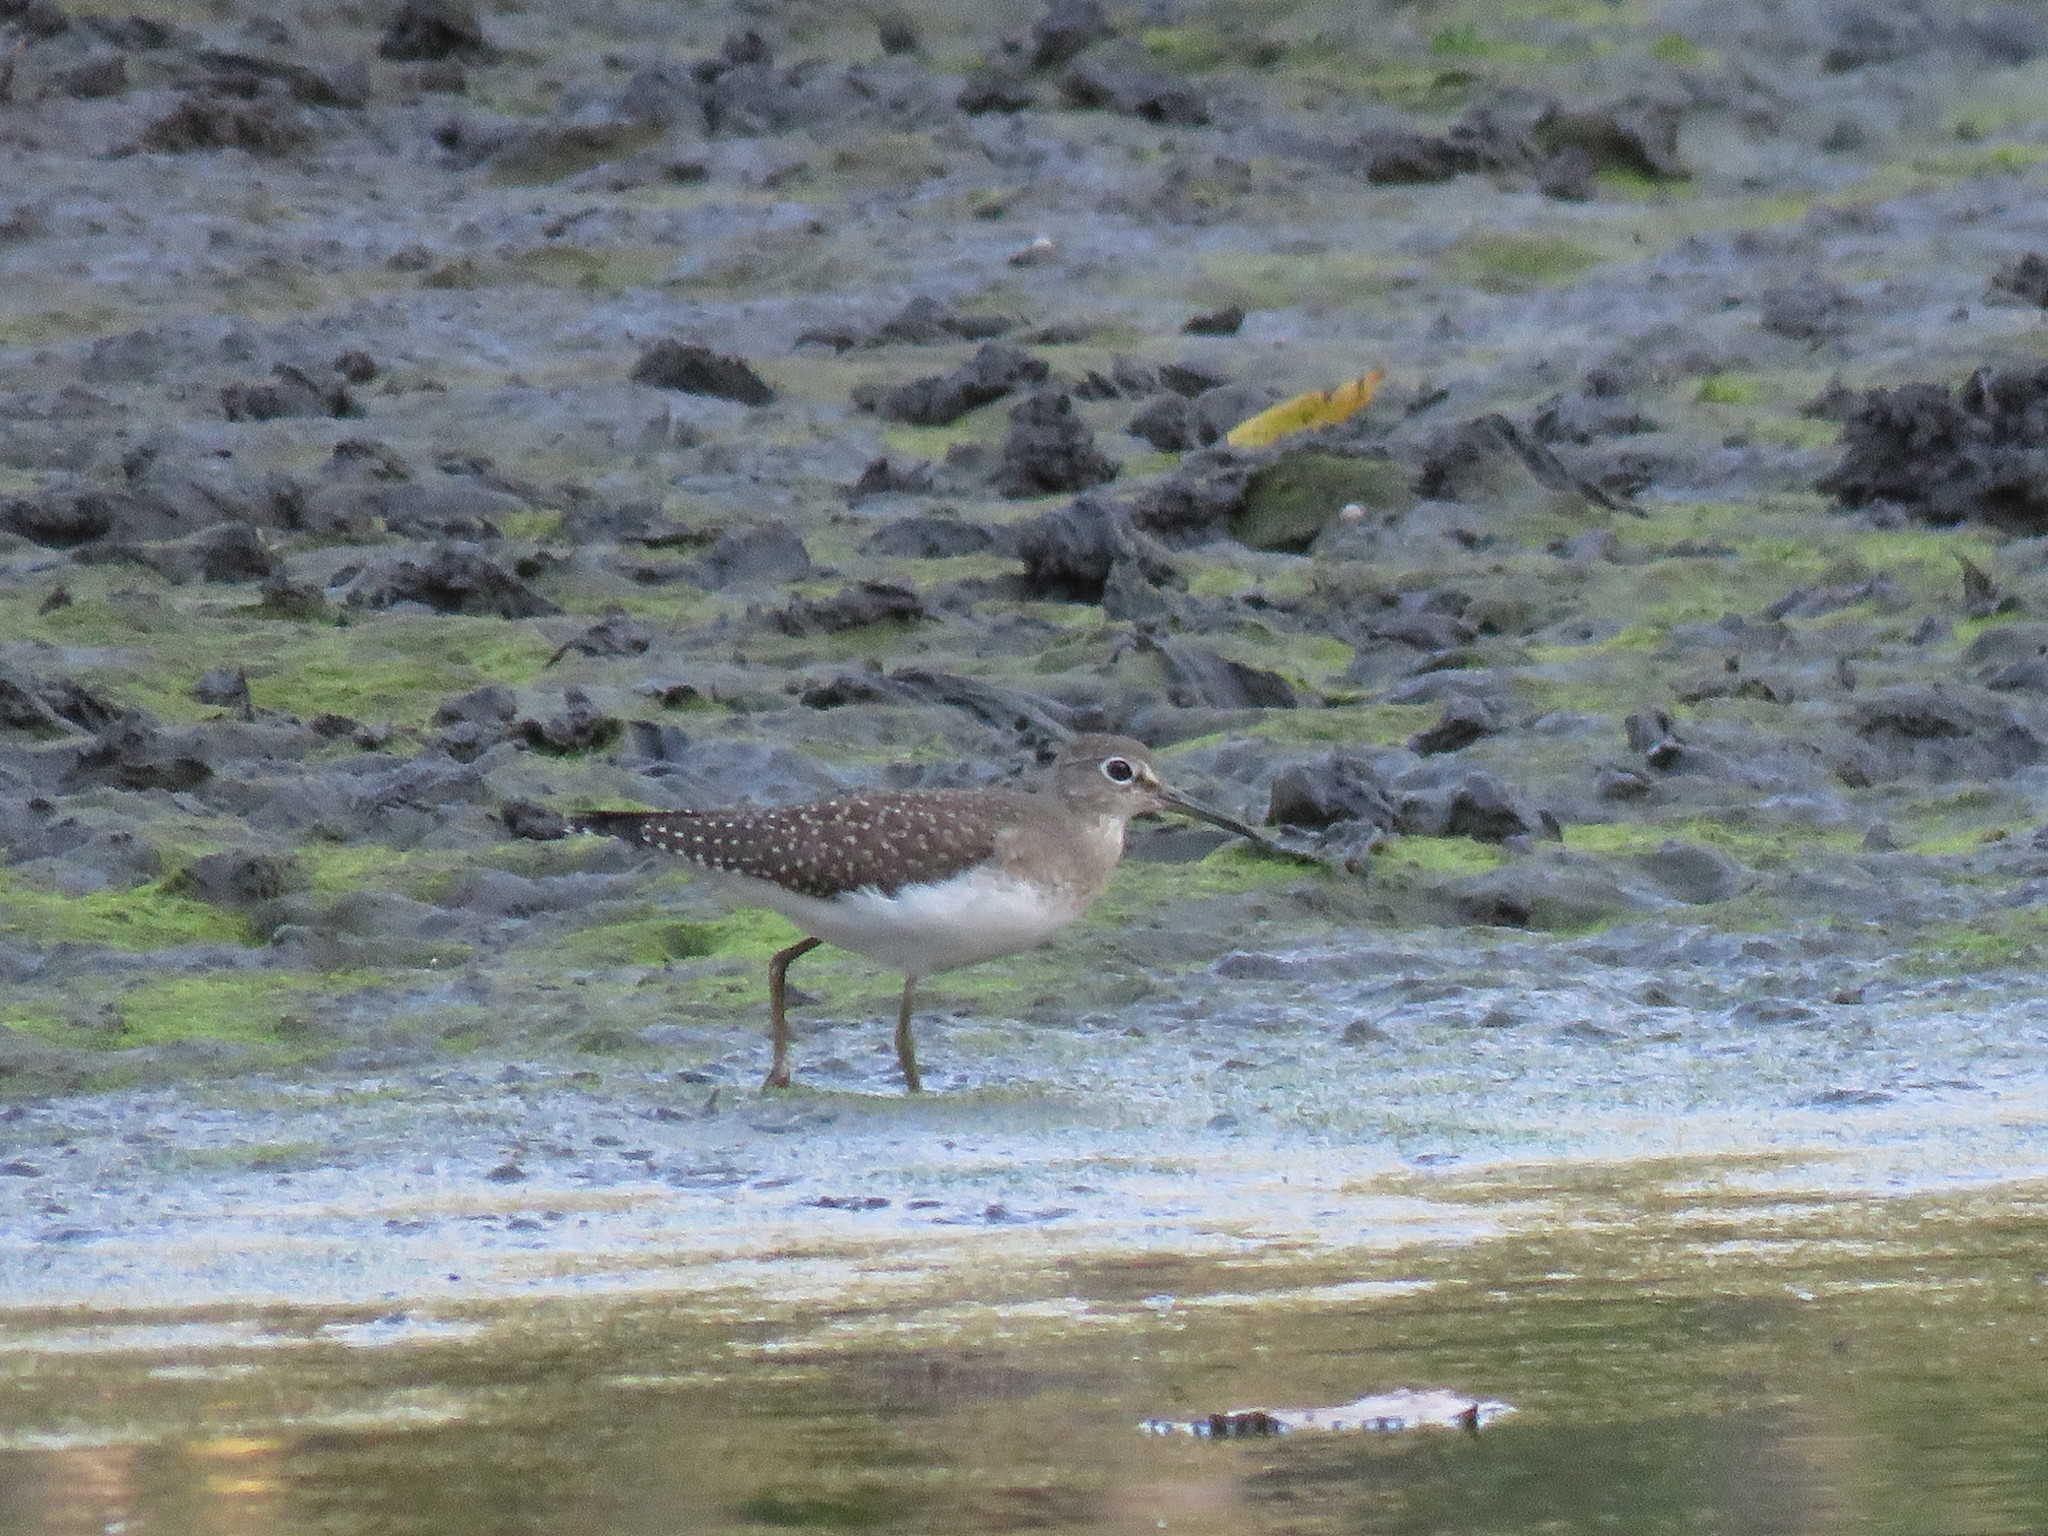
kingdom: Animalia
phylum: Chordata
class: Aves
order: Charadriiformes
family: Scolopacidae
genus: Tringa
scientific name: Tringa solitaria
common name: Solitary sandpiper
